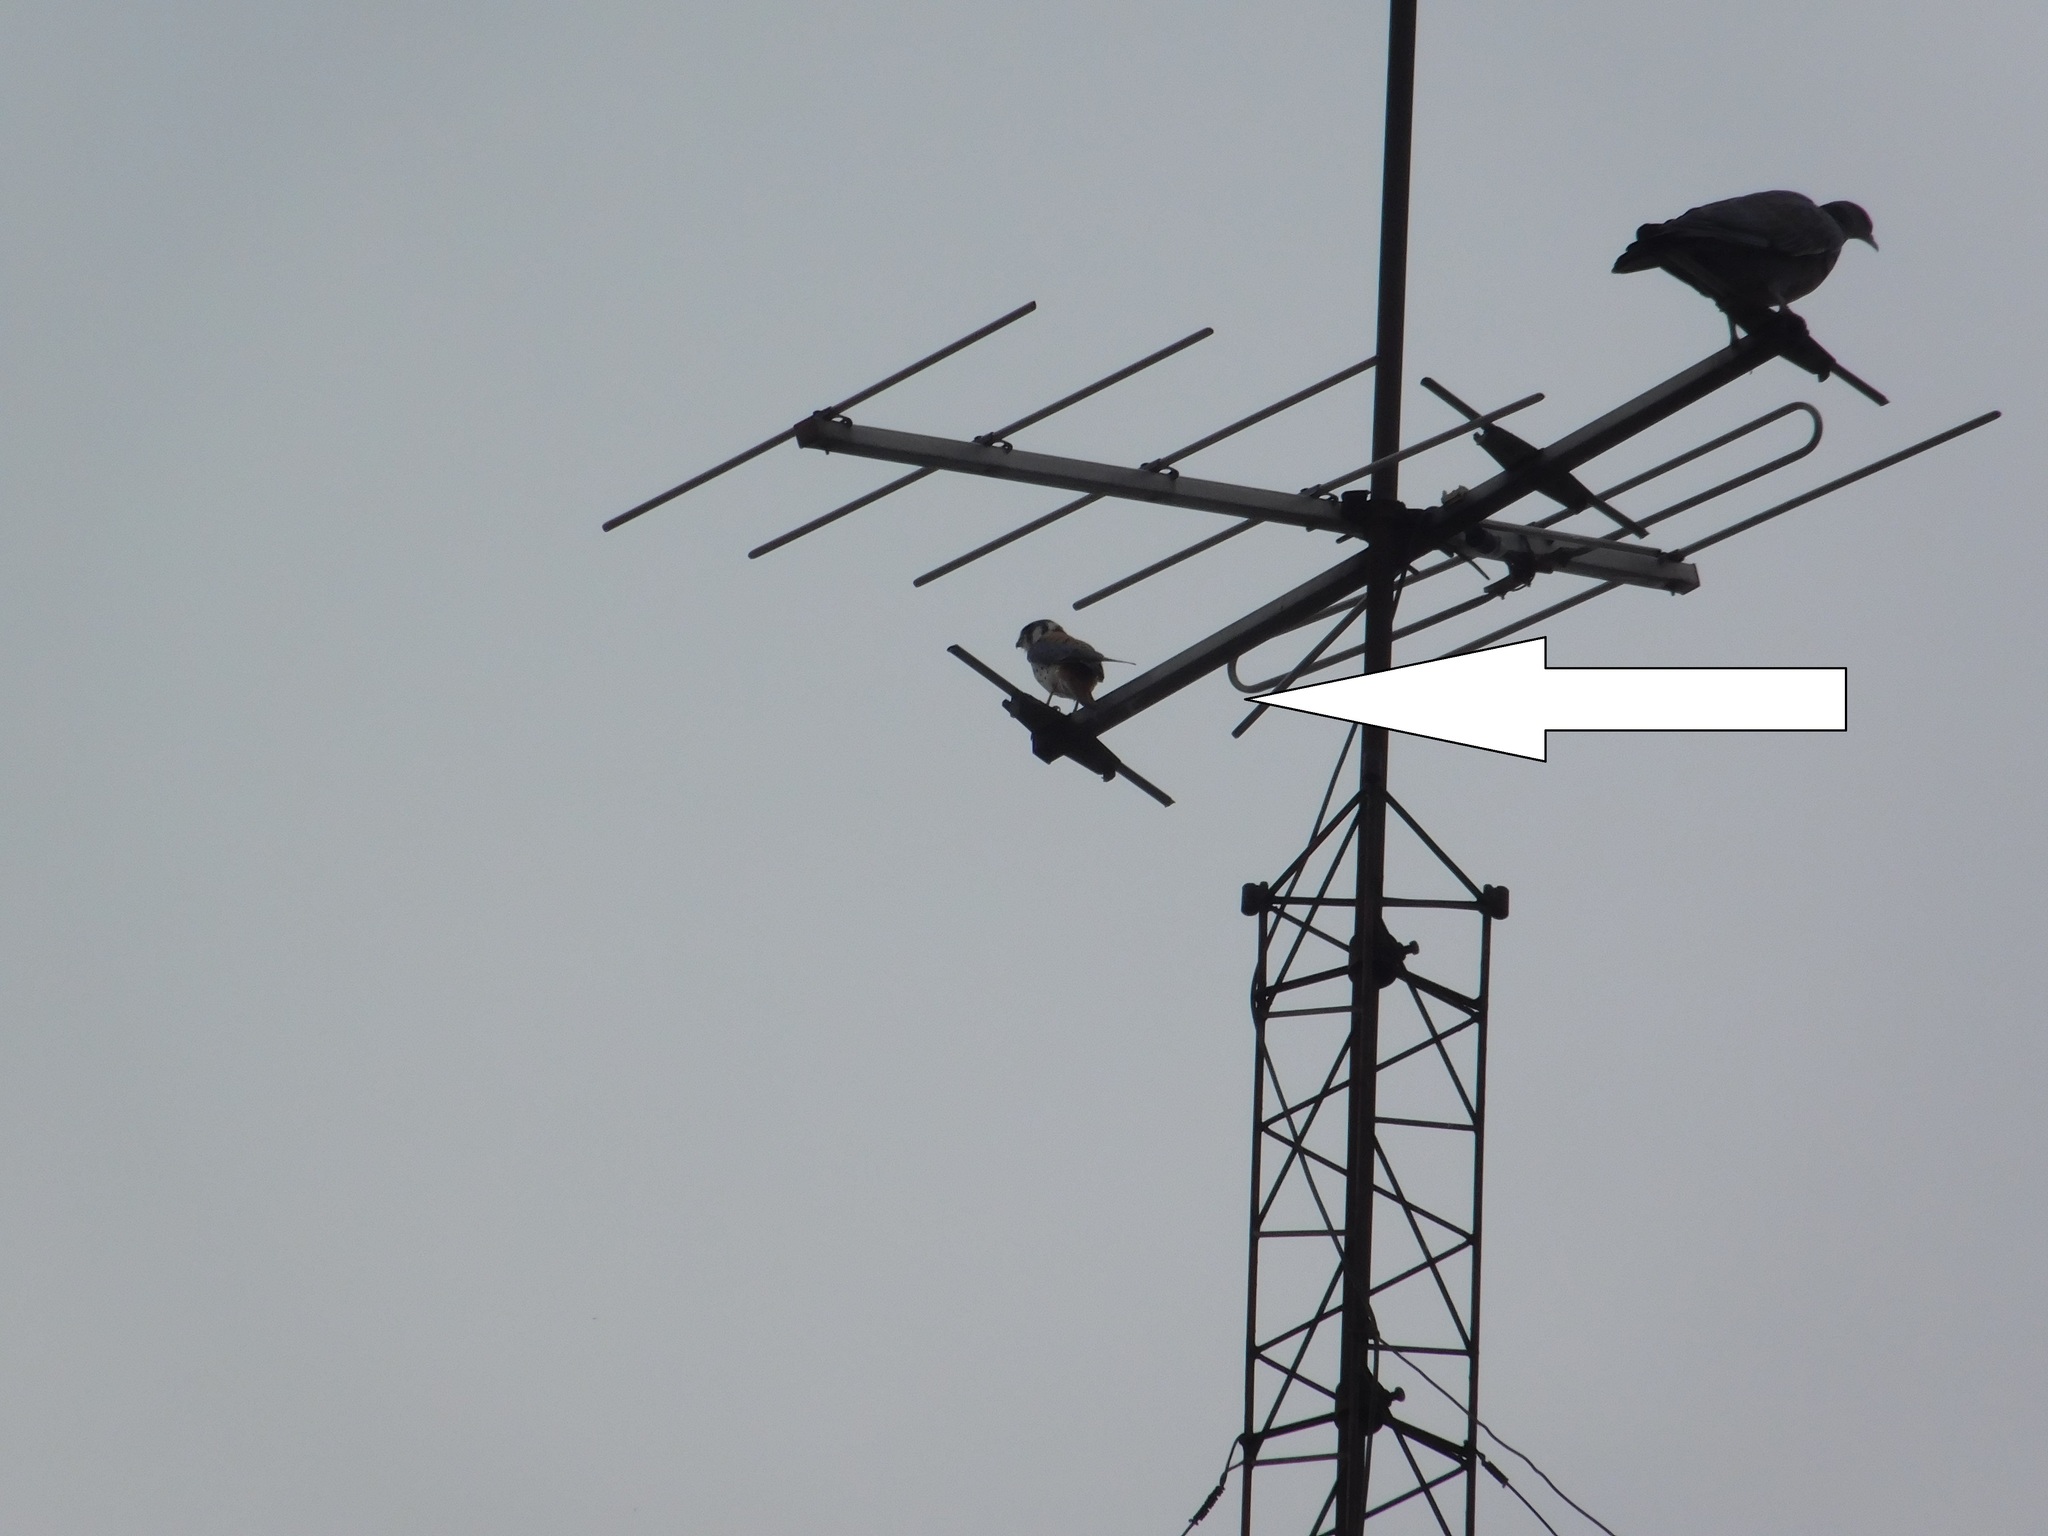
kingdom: Animalia
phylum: Chordata
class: Aves
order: Falconiformes
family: Falconidae
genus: Falco
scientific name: Falco sparverius
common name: American kestrel
